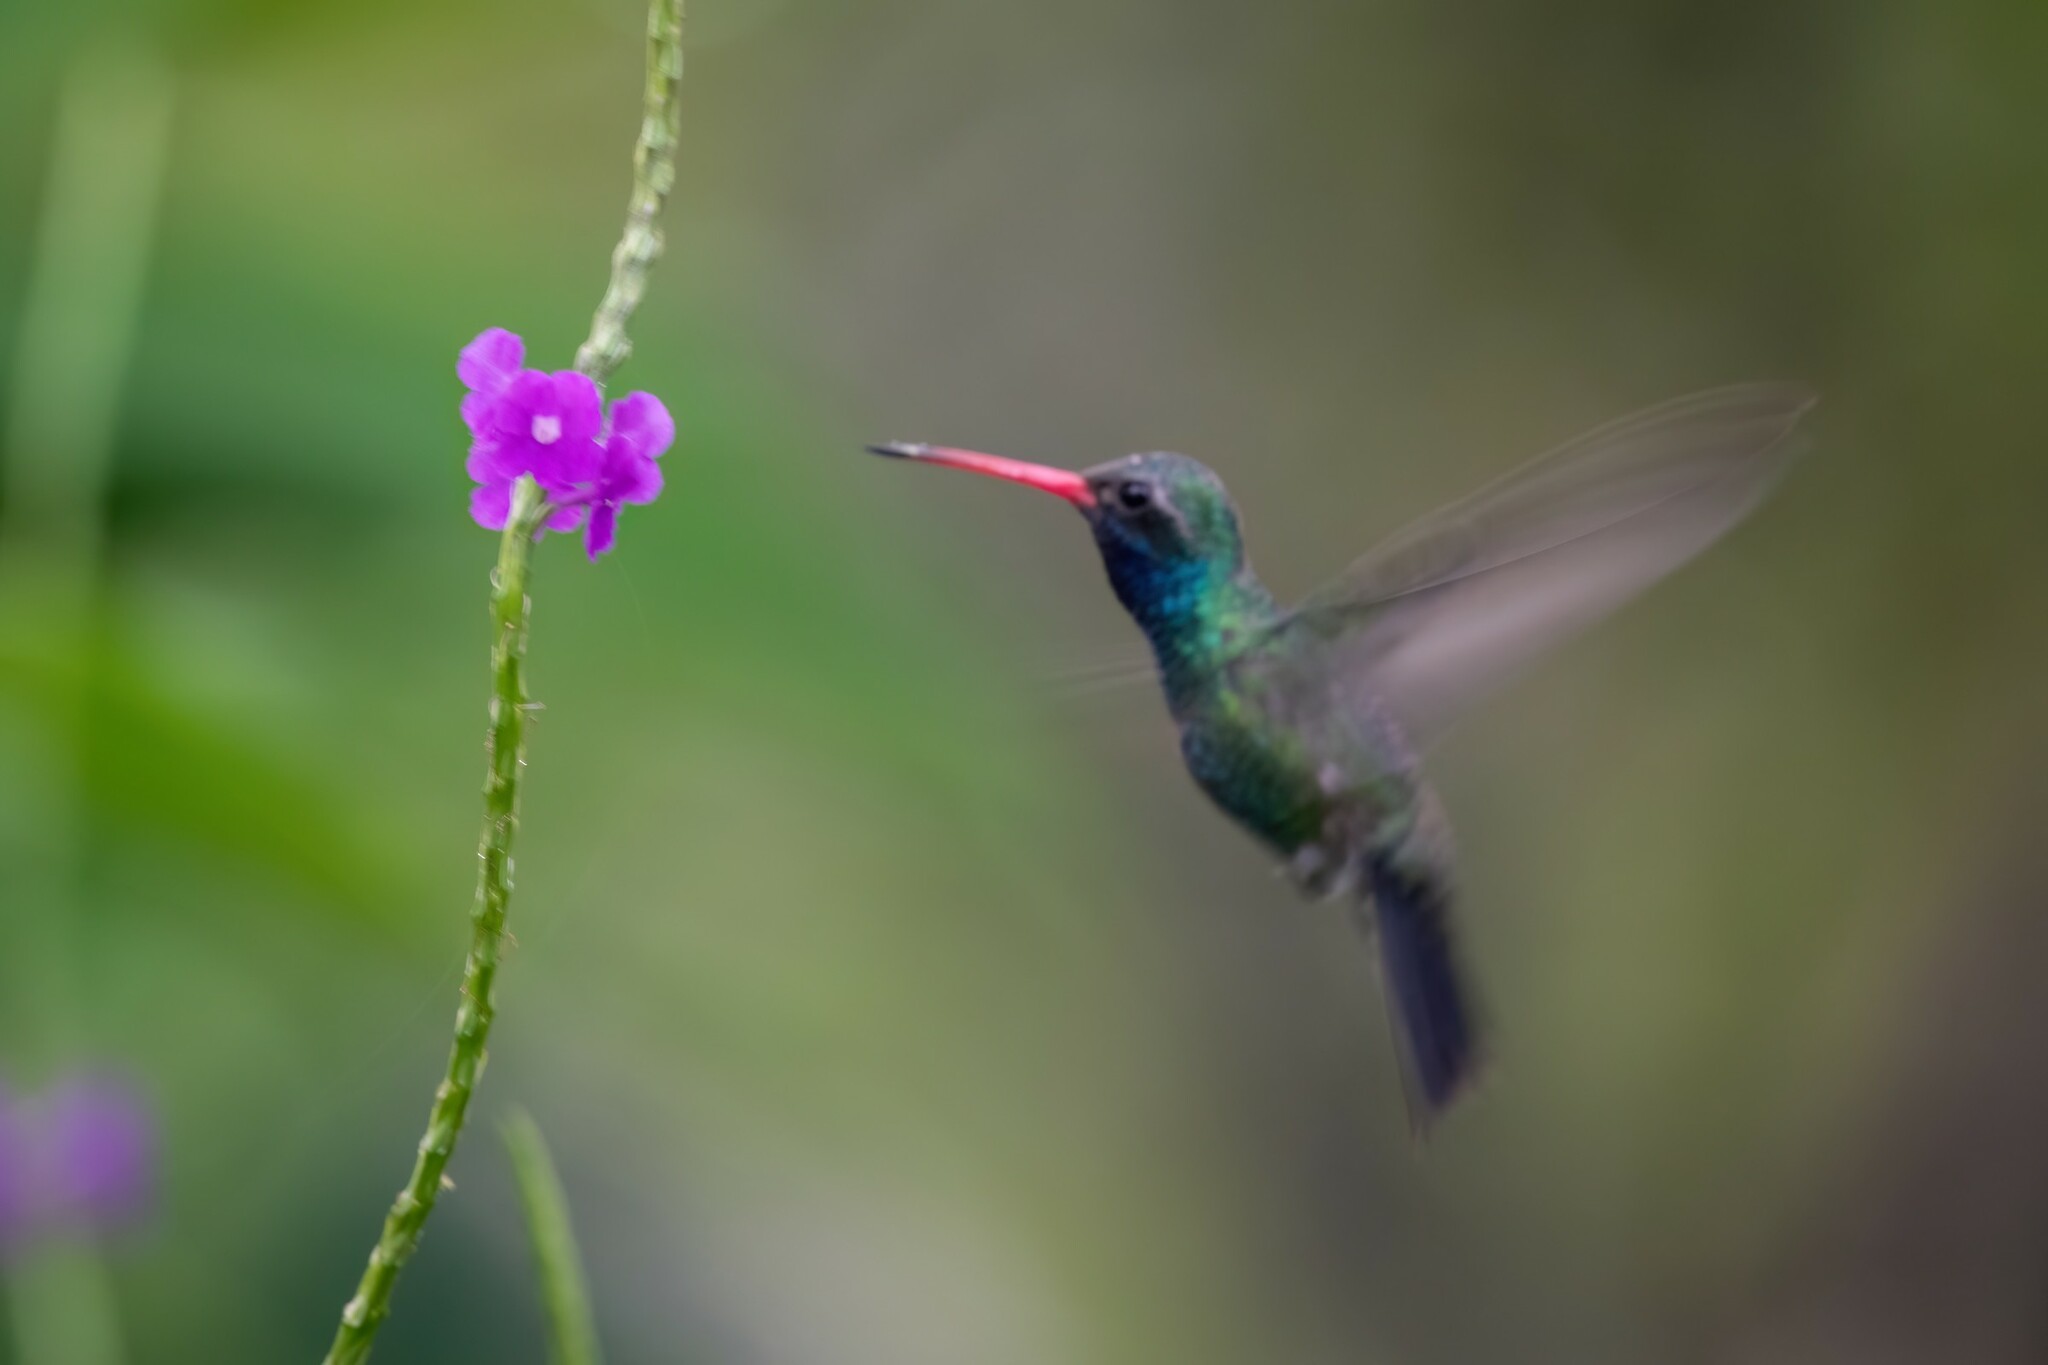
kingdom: Animalia
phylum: Chordata
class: Aves
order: Apodiformes
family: Trochilidae
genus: Cynanthus
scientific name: Cynanthus latirostris
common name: Broad-billed hummingbird
